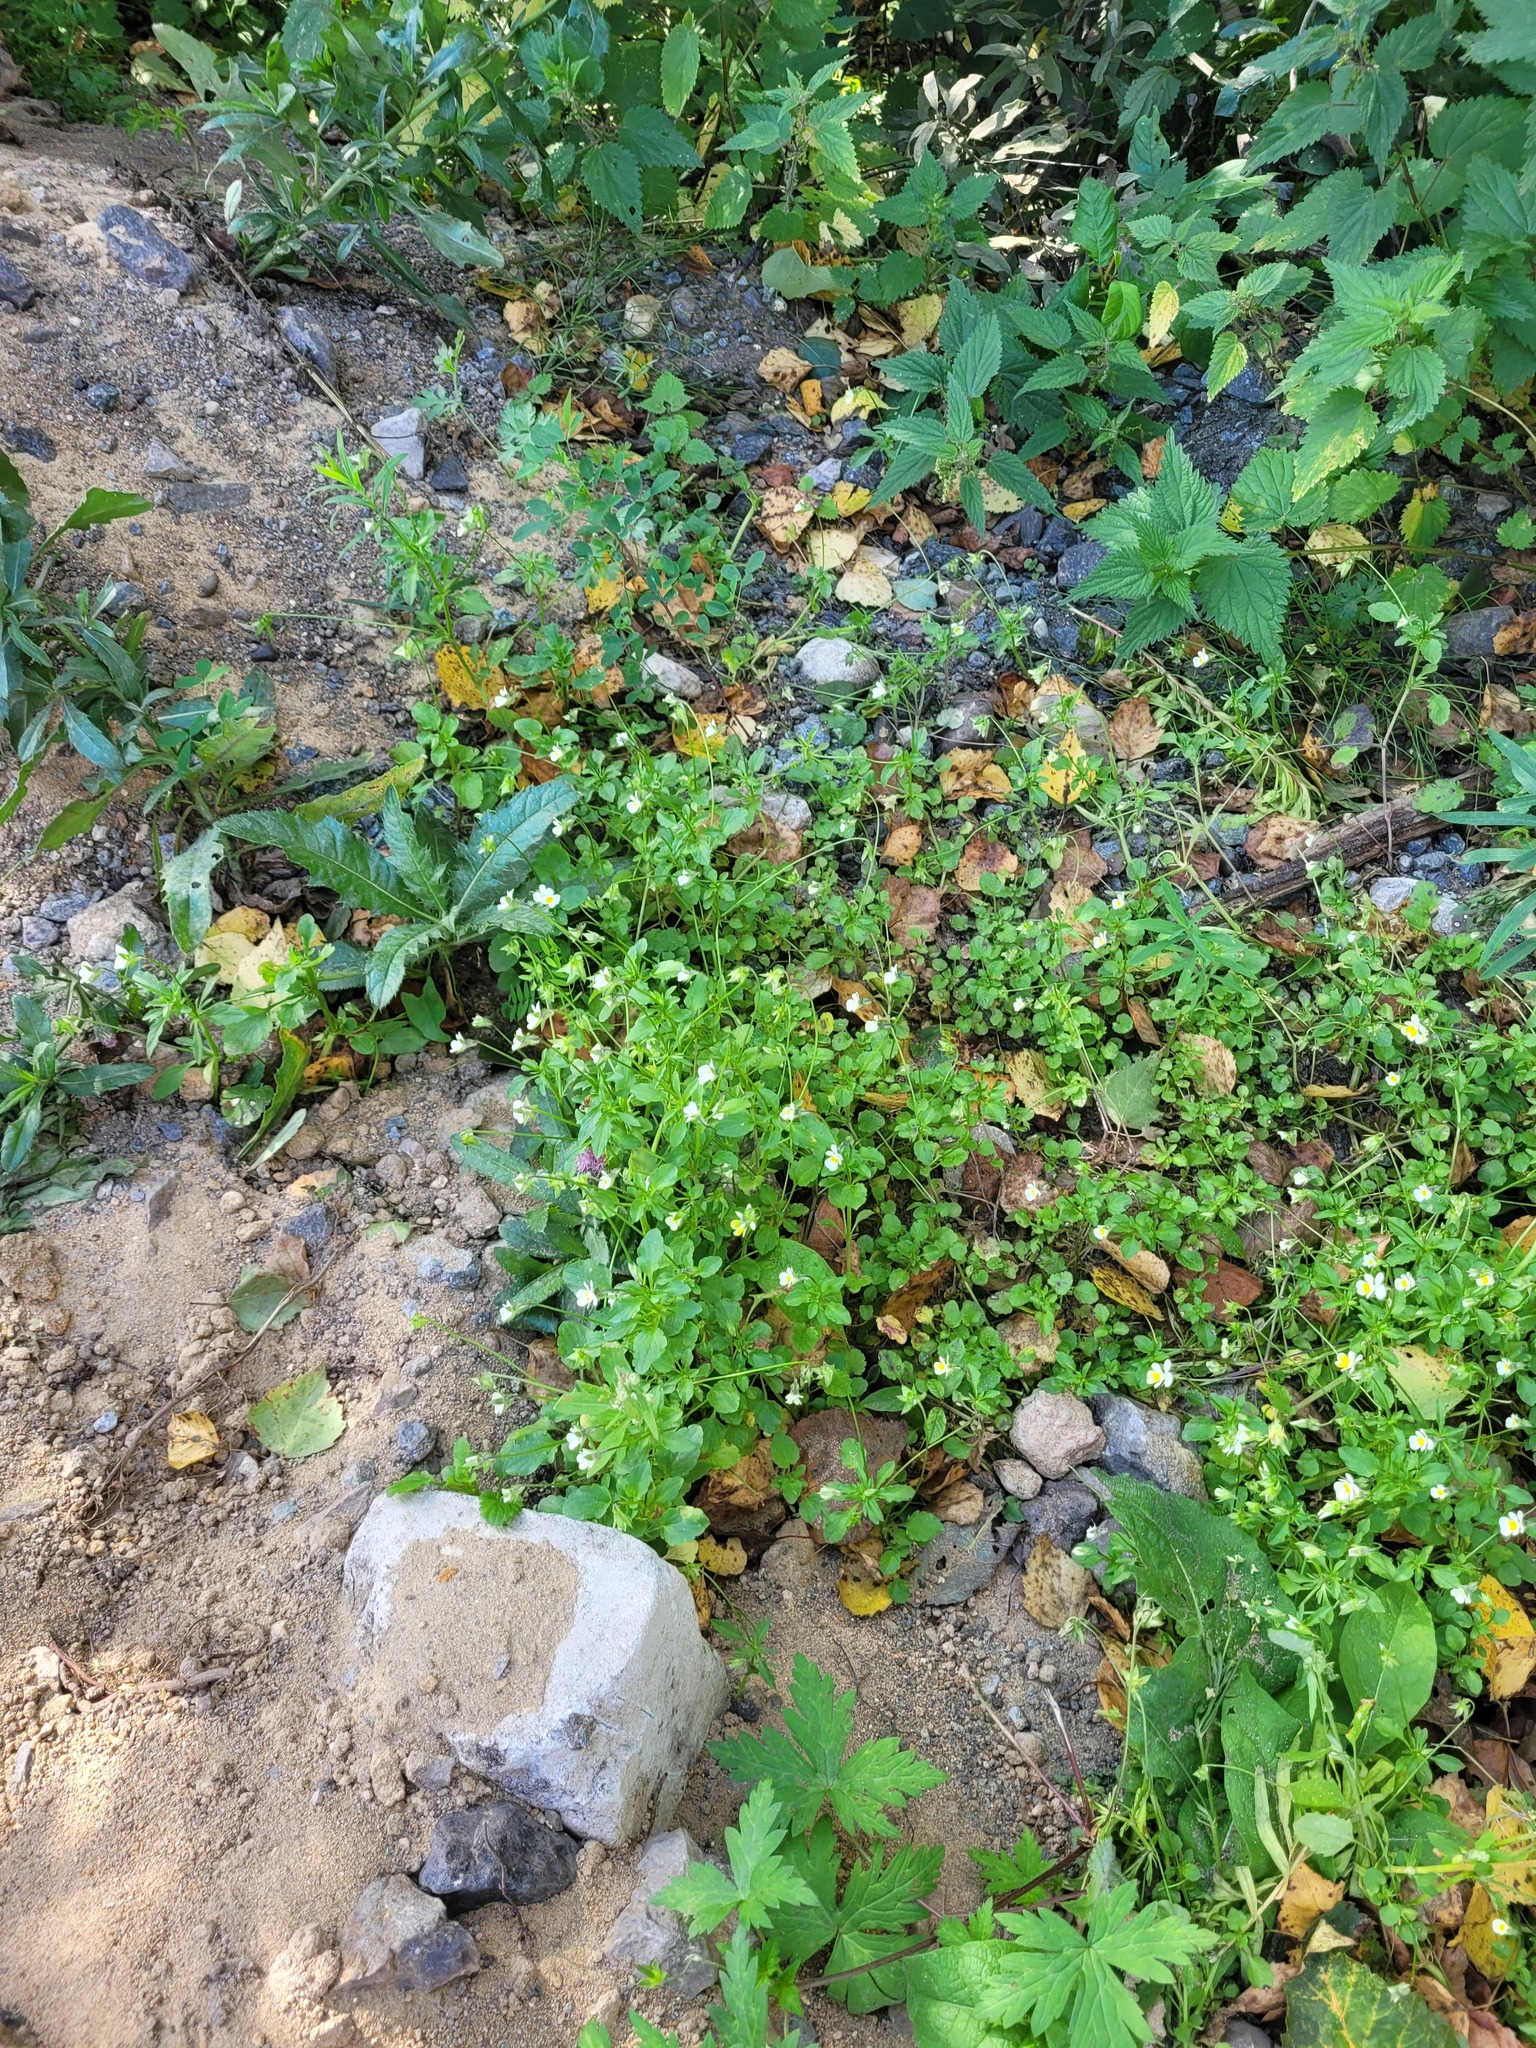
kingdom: Plantae
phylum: Tracheophyta
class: Magnoliopsida
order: Malpighiales
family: Violaceae
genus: Viola
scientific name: Viola arvensis
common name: Field pansy
